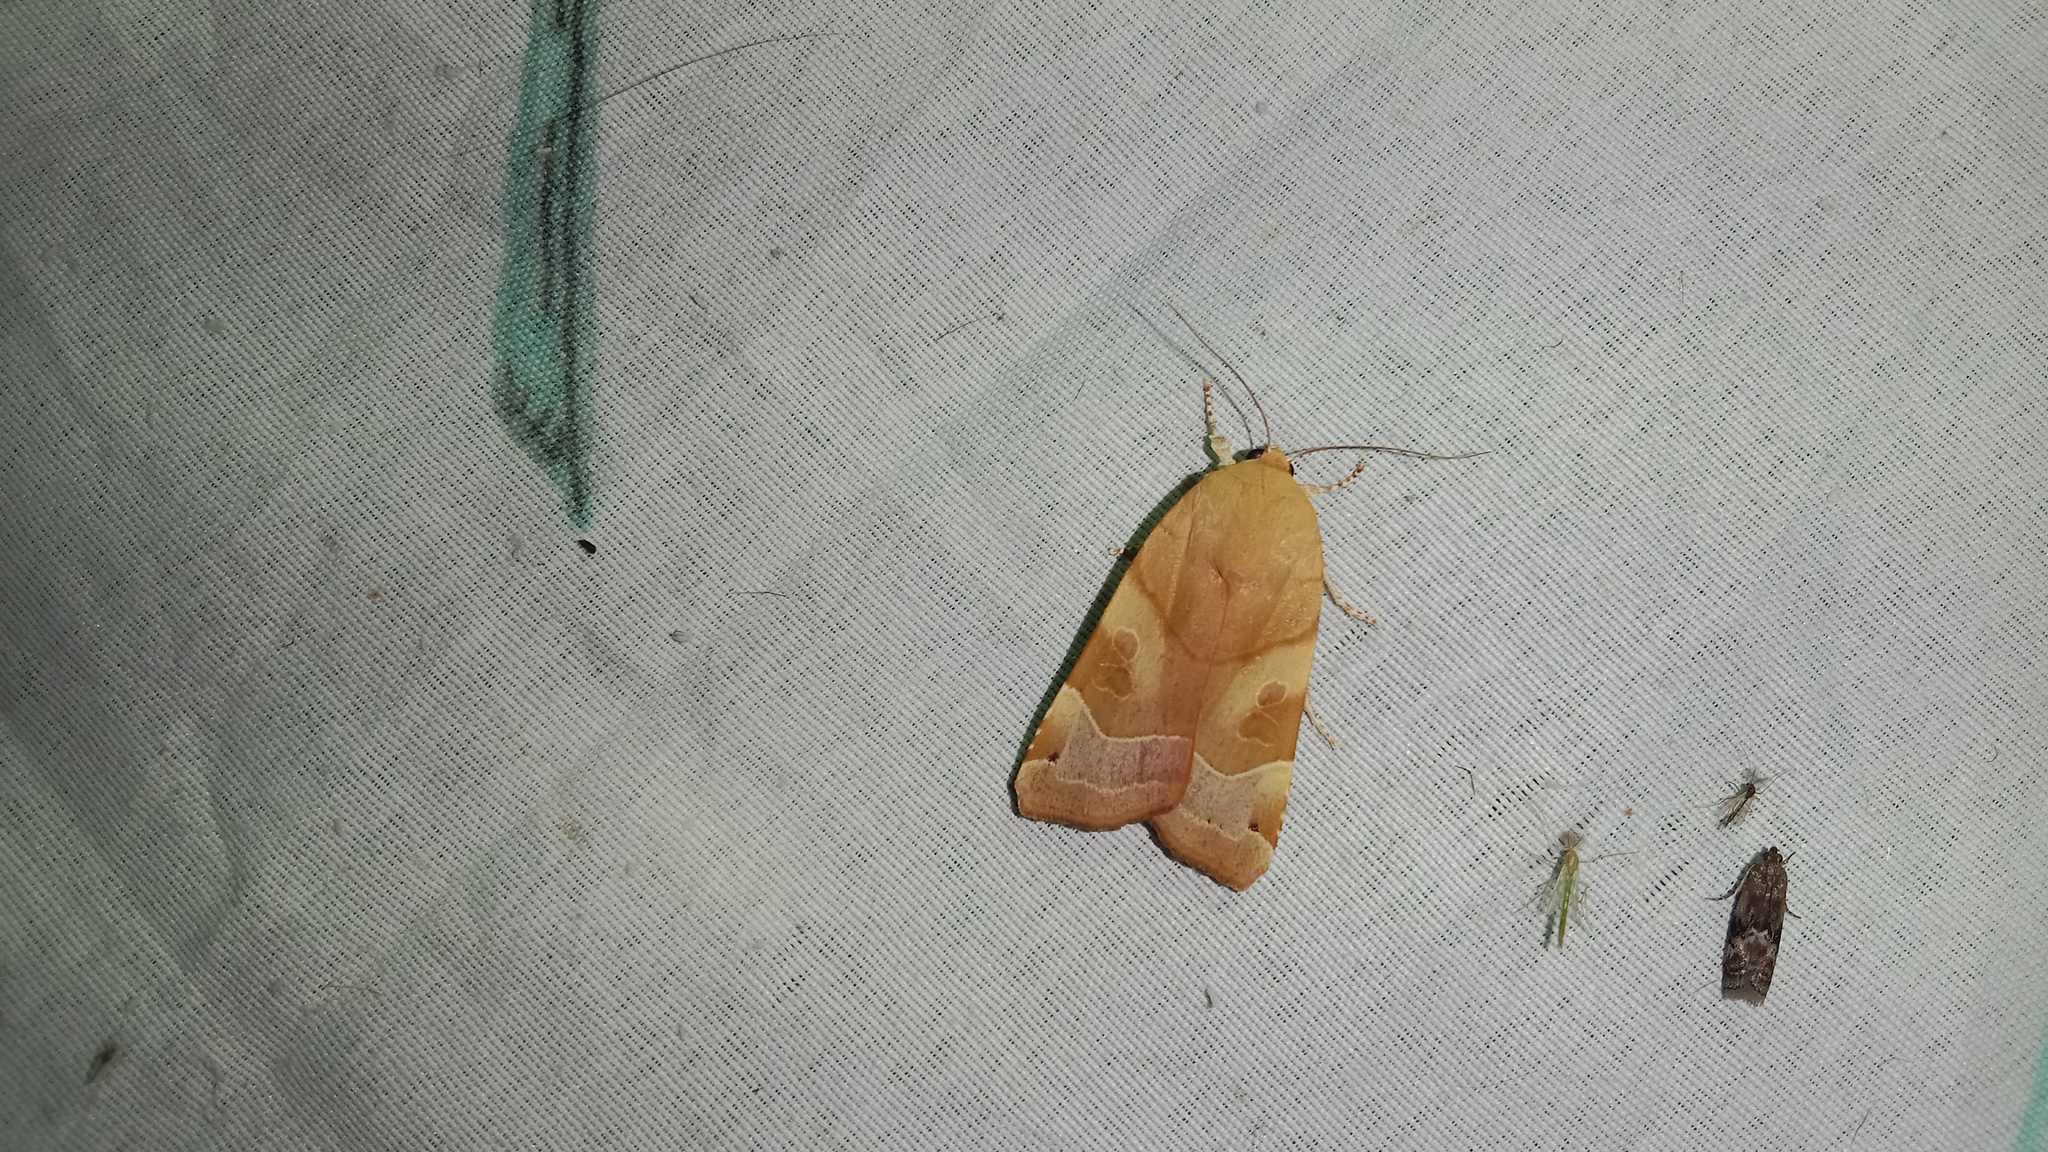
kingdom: Animalia
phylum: Arthropoda
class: Insecta
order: Lepidoptera
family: Noctuidae
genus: Noctua
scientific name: Noctua fimbriata
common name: Broad-bordered yellow underwing
